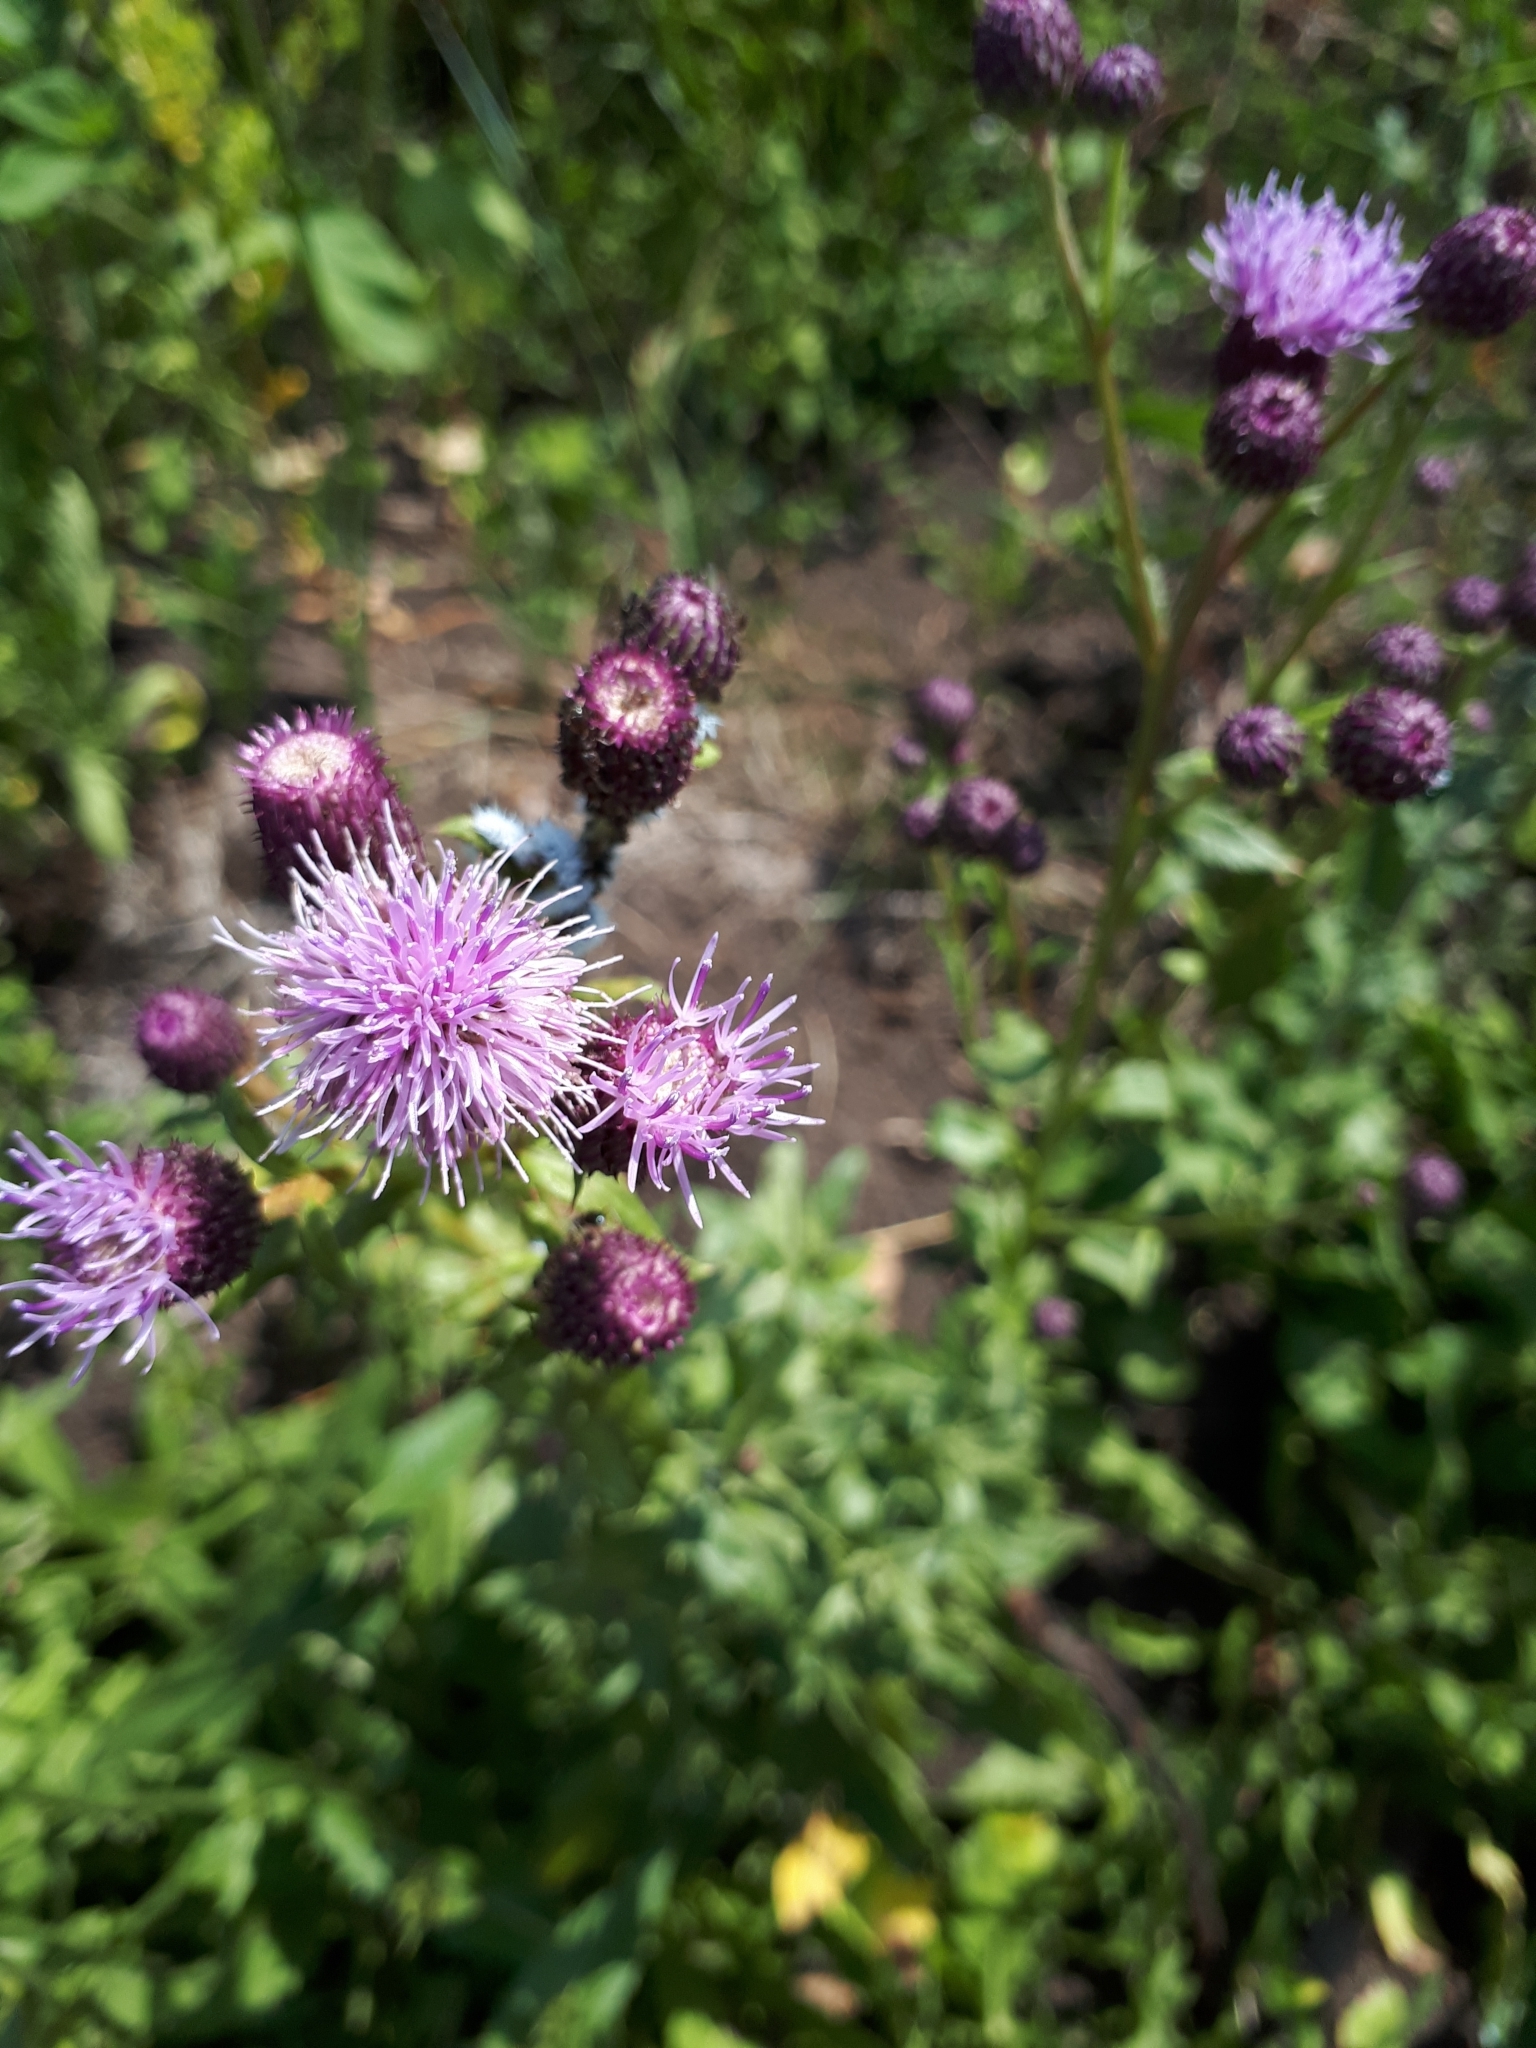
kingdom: Plantae
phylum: Tracheophyta
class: Magnoliopsida
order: Asterales
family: Asteraceae
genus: Cirsium
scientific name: Cirsium arvense
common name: Creeping thistle
